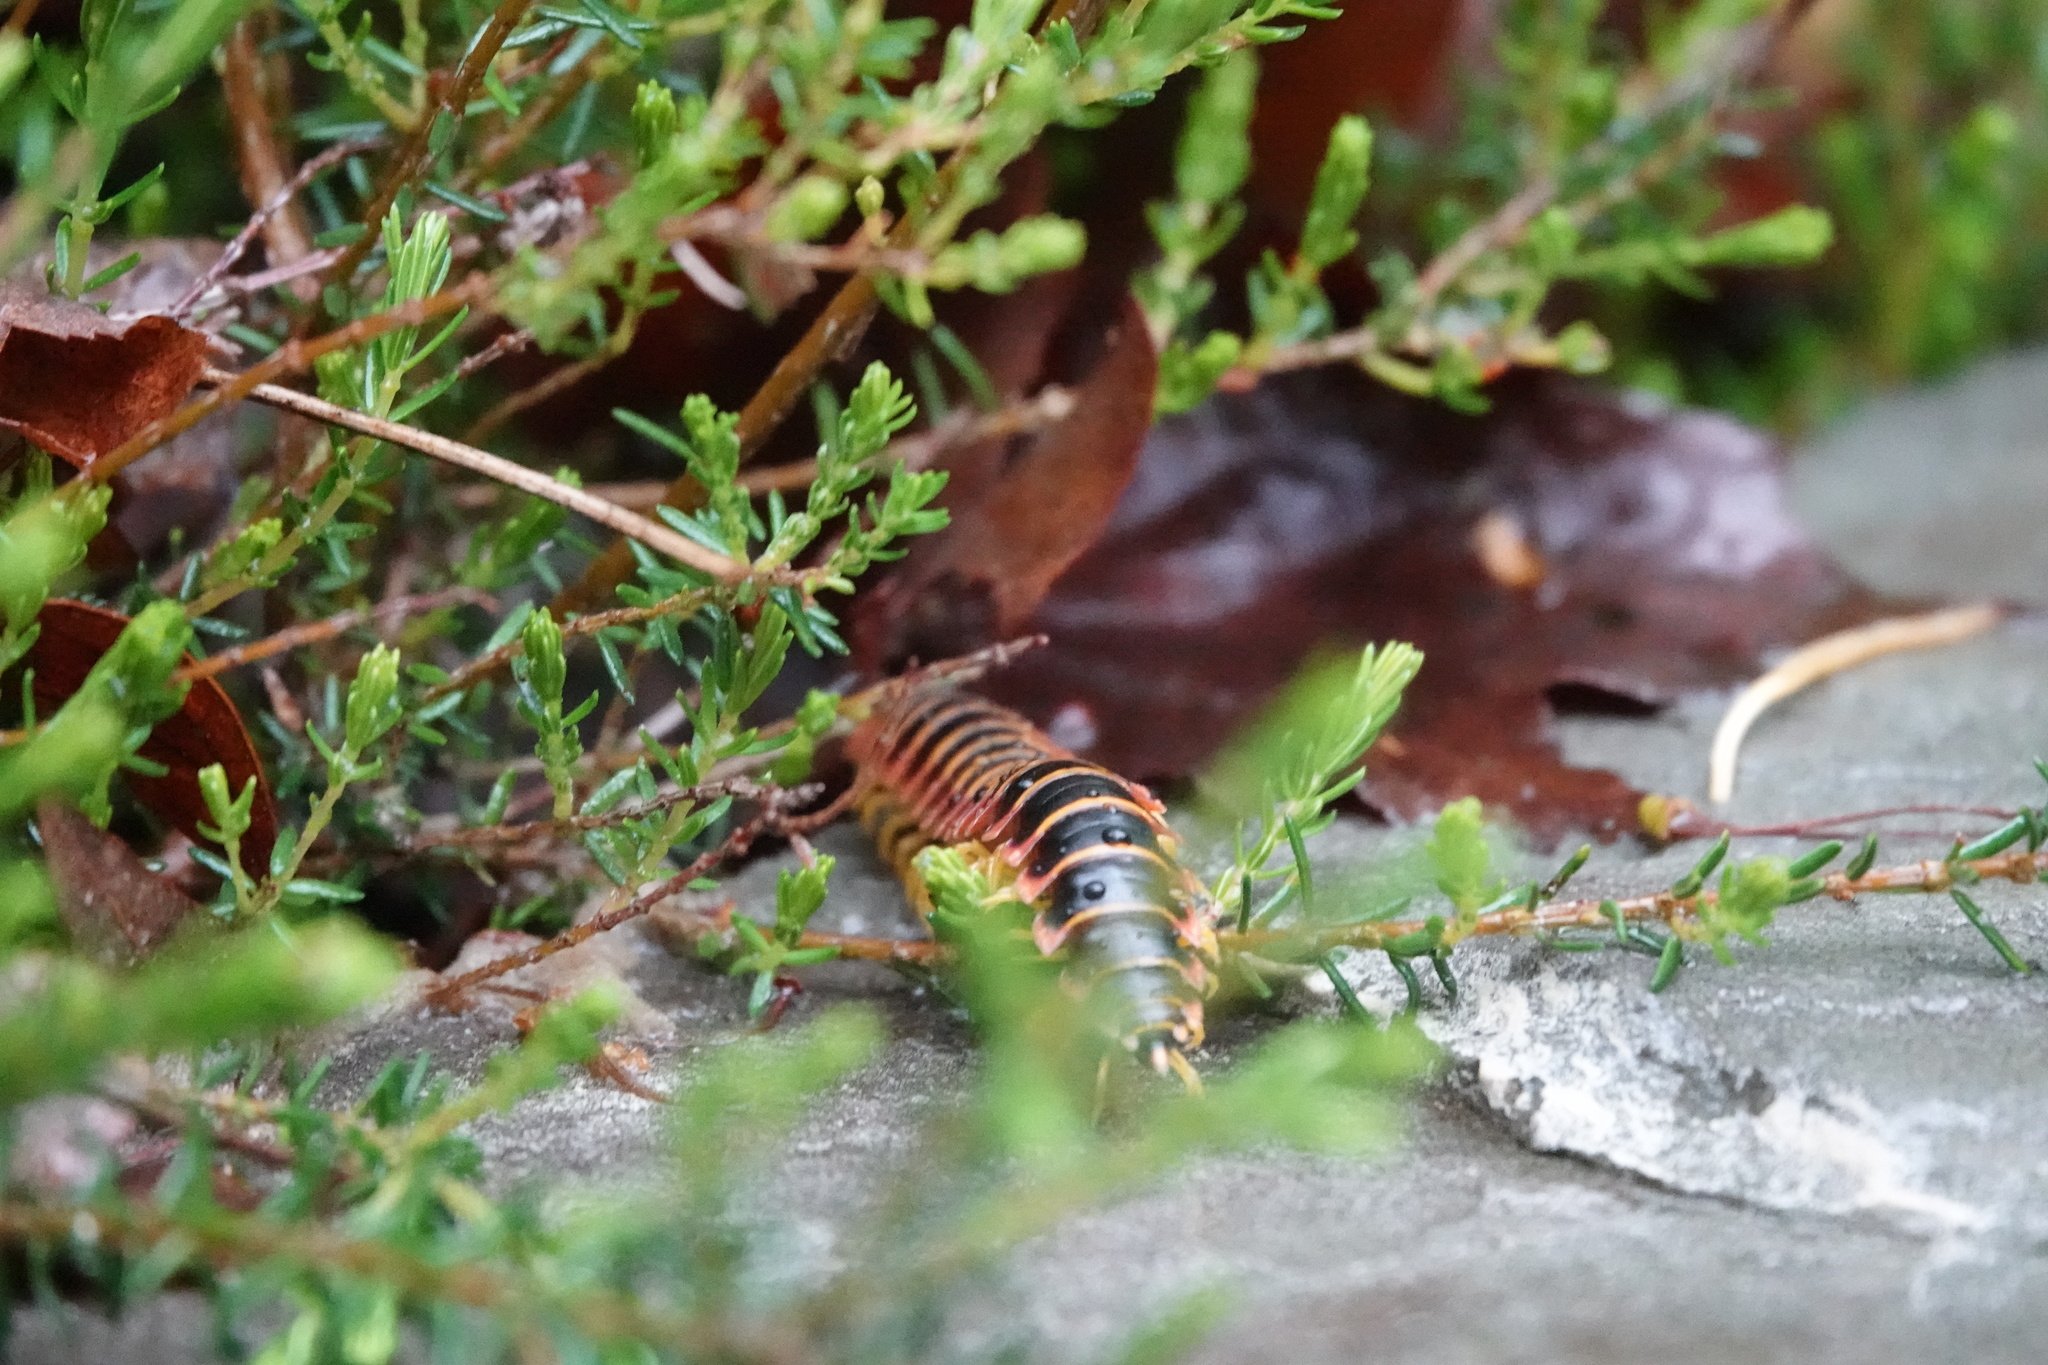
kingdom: Animalia
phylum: Arthropoda
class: Diplopoda
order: Polydesmida
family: Xystodesmidae
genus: Apheloria
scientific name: Apheloria virginiensis
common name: Black-and-gold flat millipede
